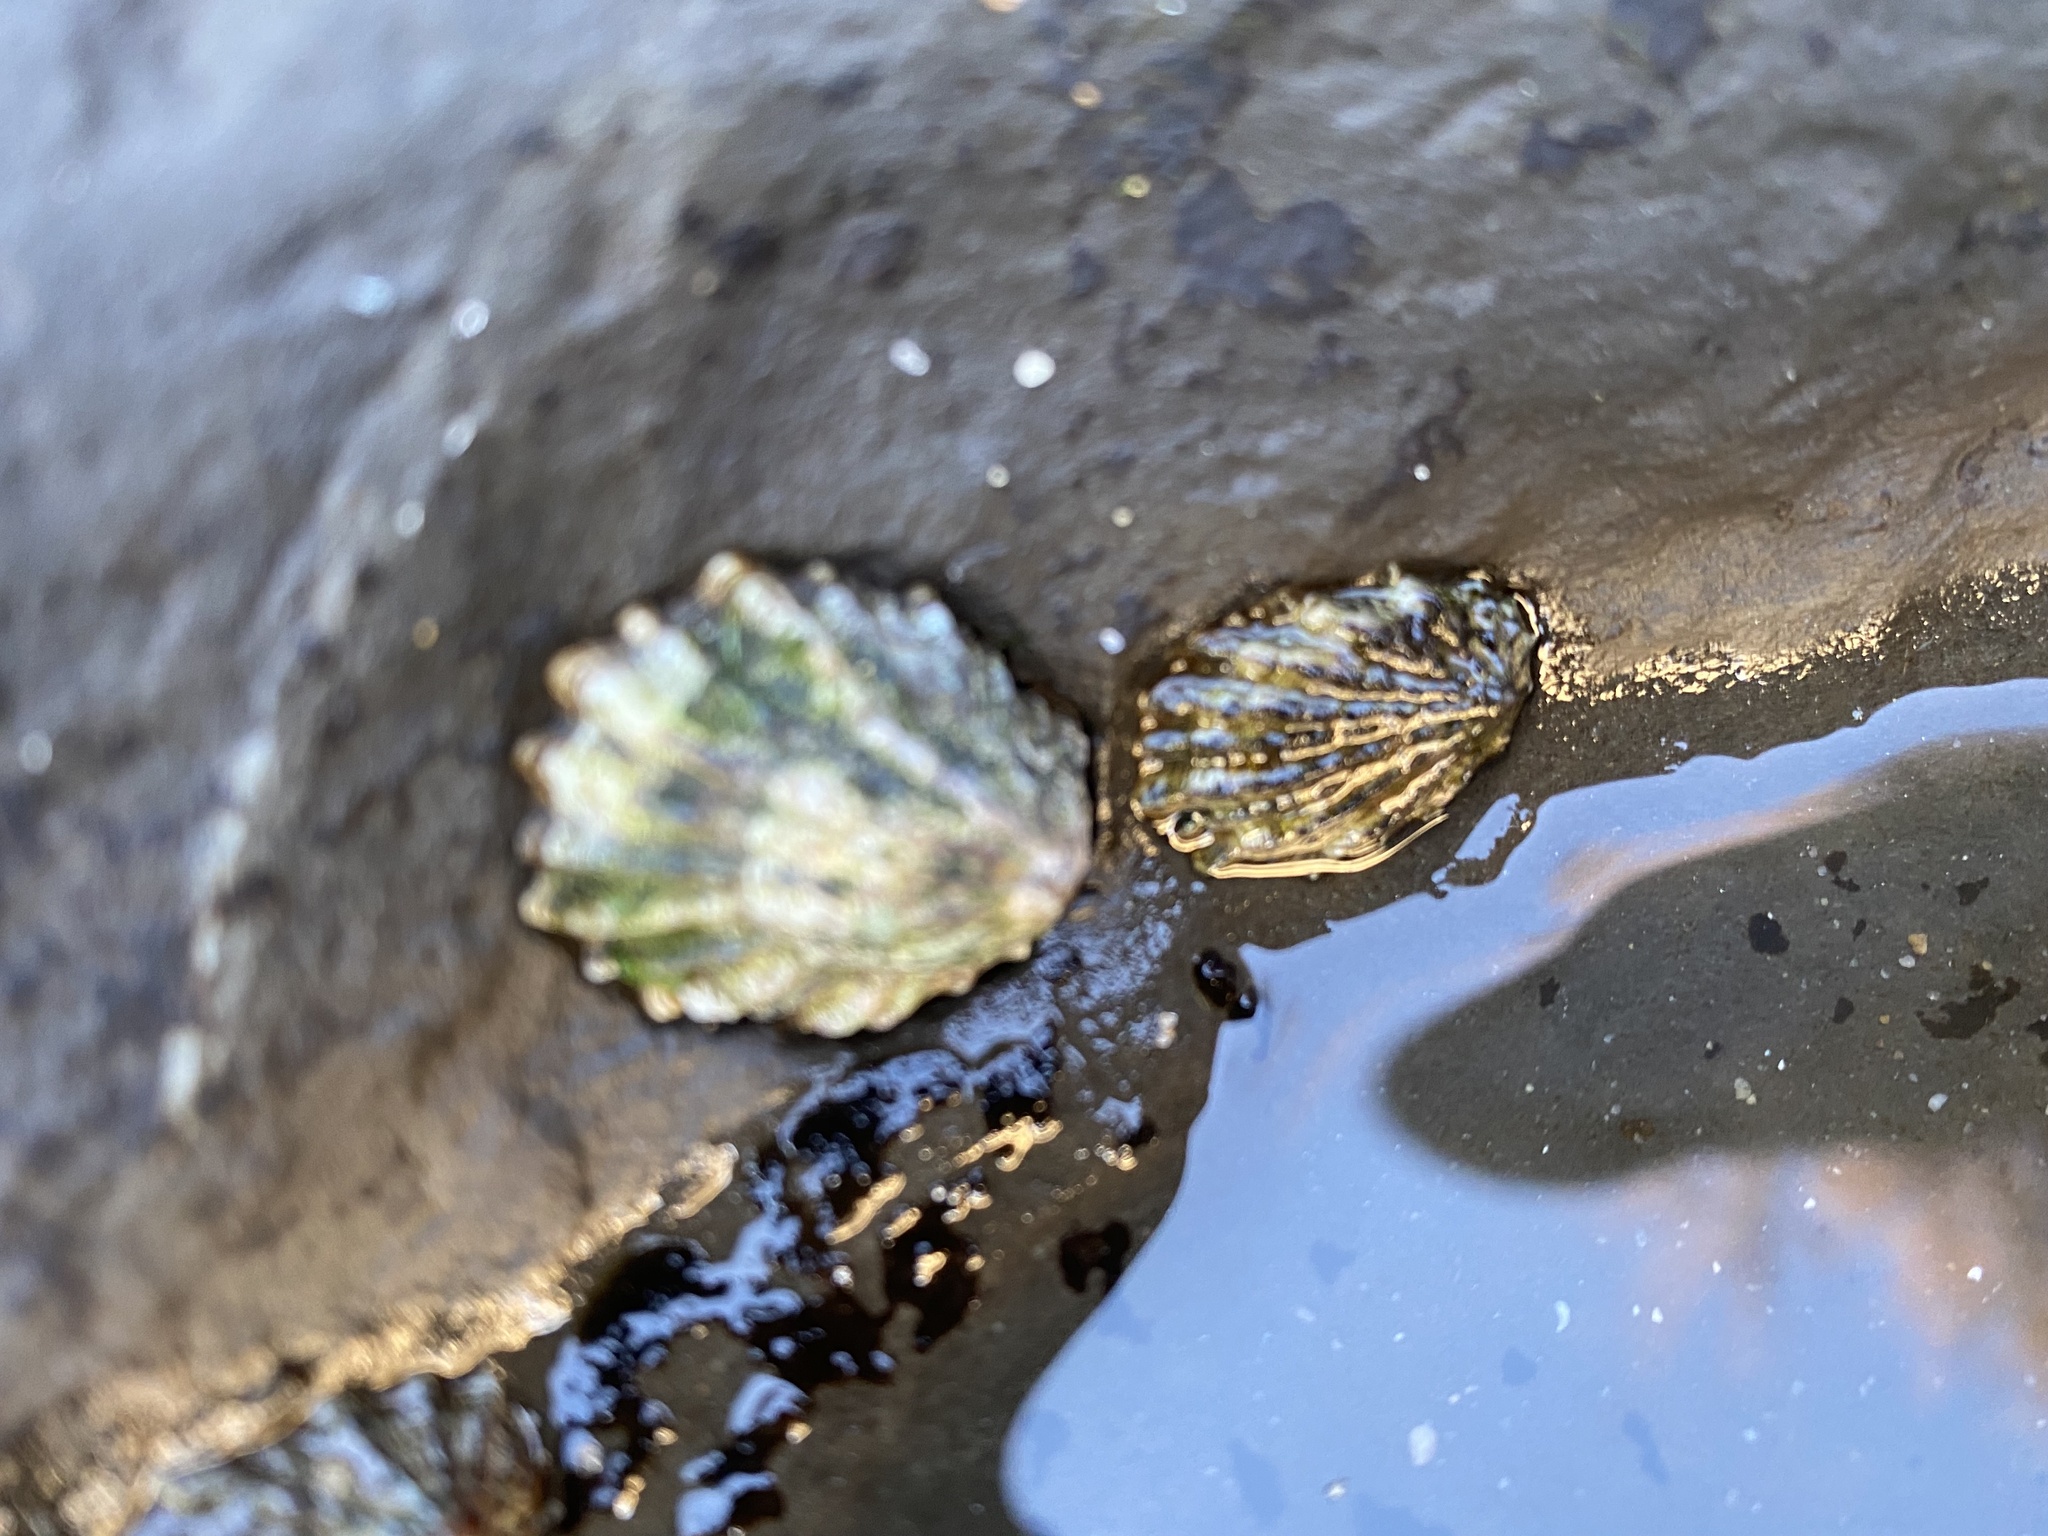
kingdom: Animalia
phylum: Mollusca
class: Gastropoda
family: Lottiidae
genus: Lottia
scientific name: Lottia scabra
